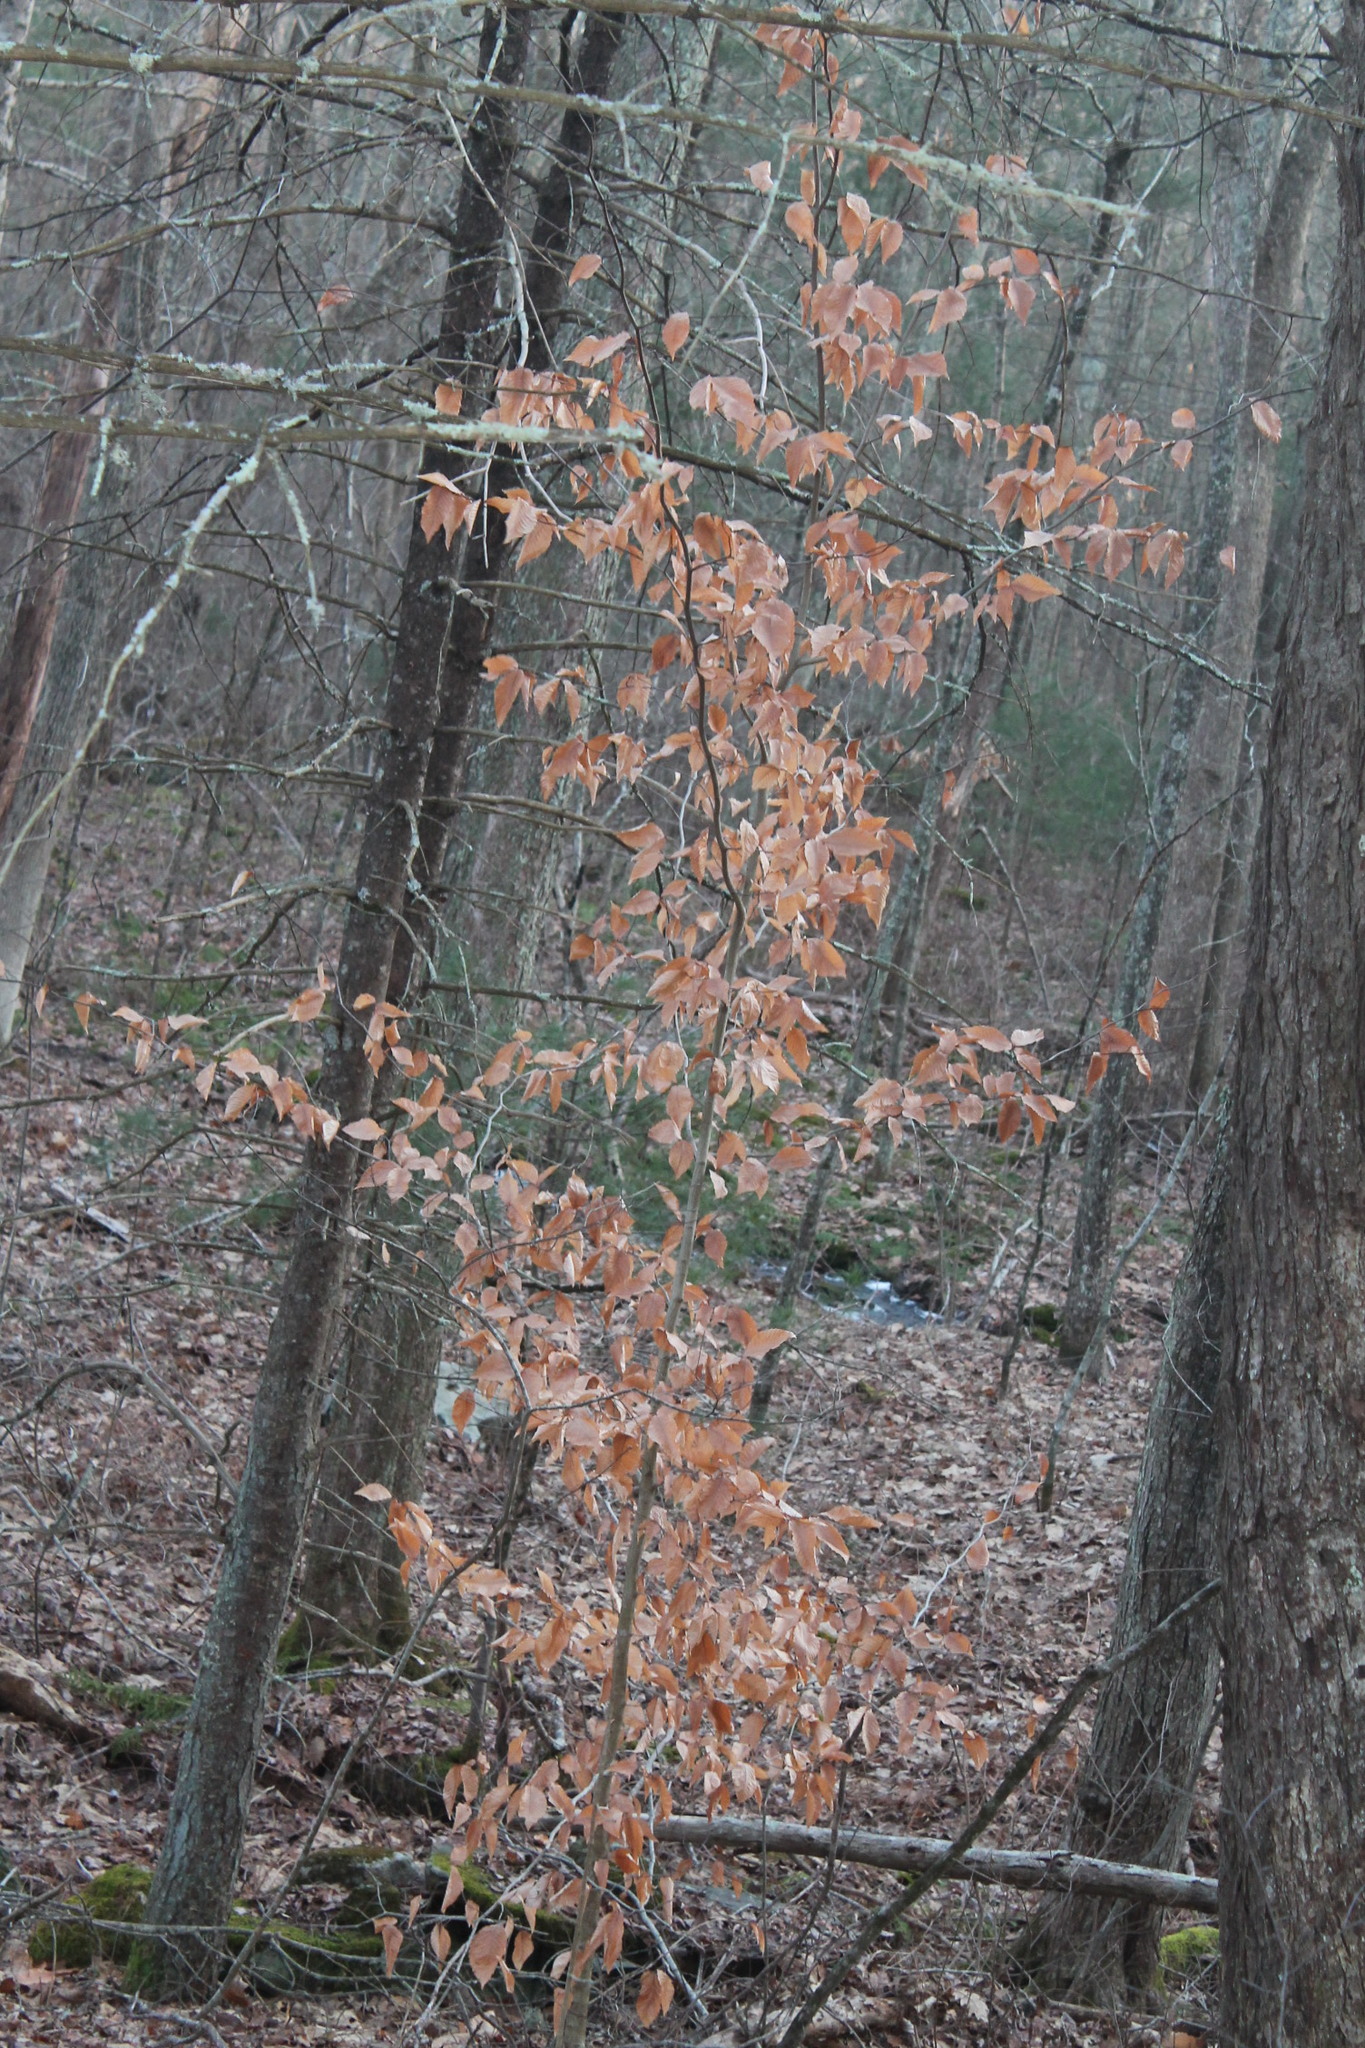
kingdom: Plantae
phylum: Tracheophyta
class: Magnoliopsida
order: Fagales
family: Fagaceae
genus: Fagus
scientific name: Fagus grandifolia
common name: American beech
